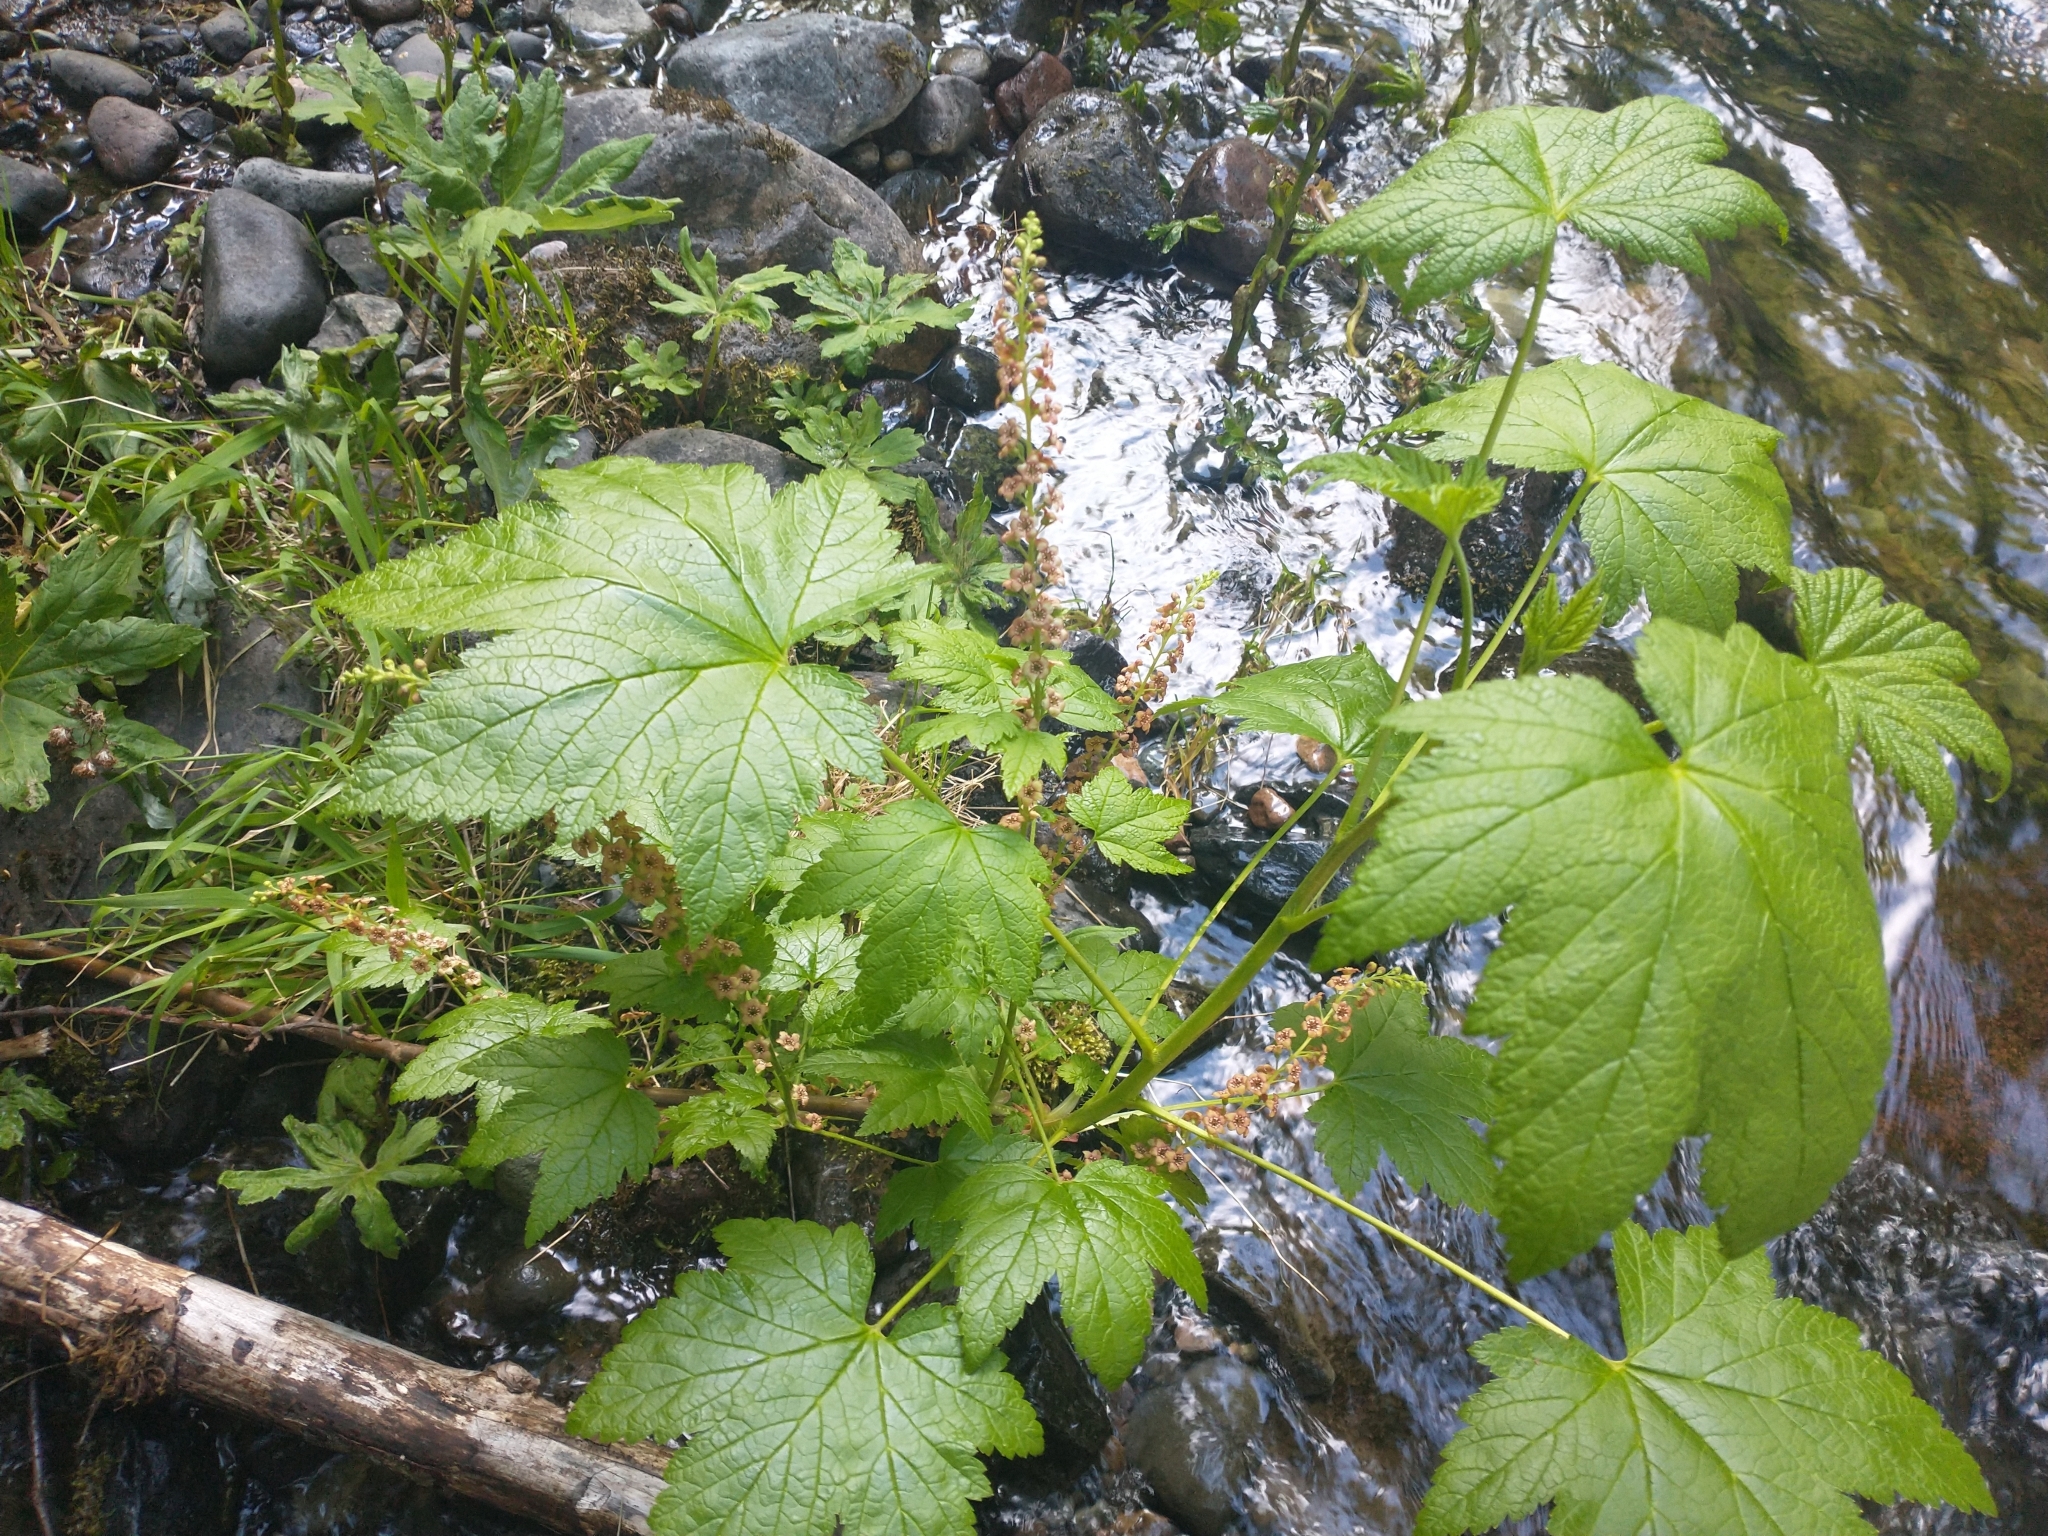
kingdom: Plantae
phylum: Tracheophyta
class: Magnoliopsida
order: Saxifragales
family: Grossulariaceae
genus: Ribes
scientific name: Ribes bracteosum
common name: California black currant
